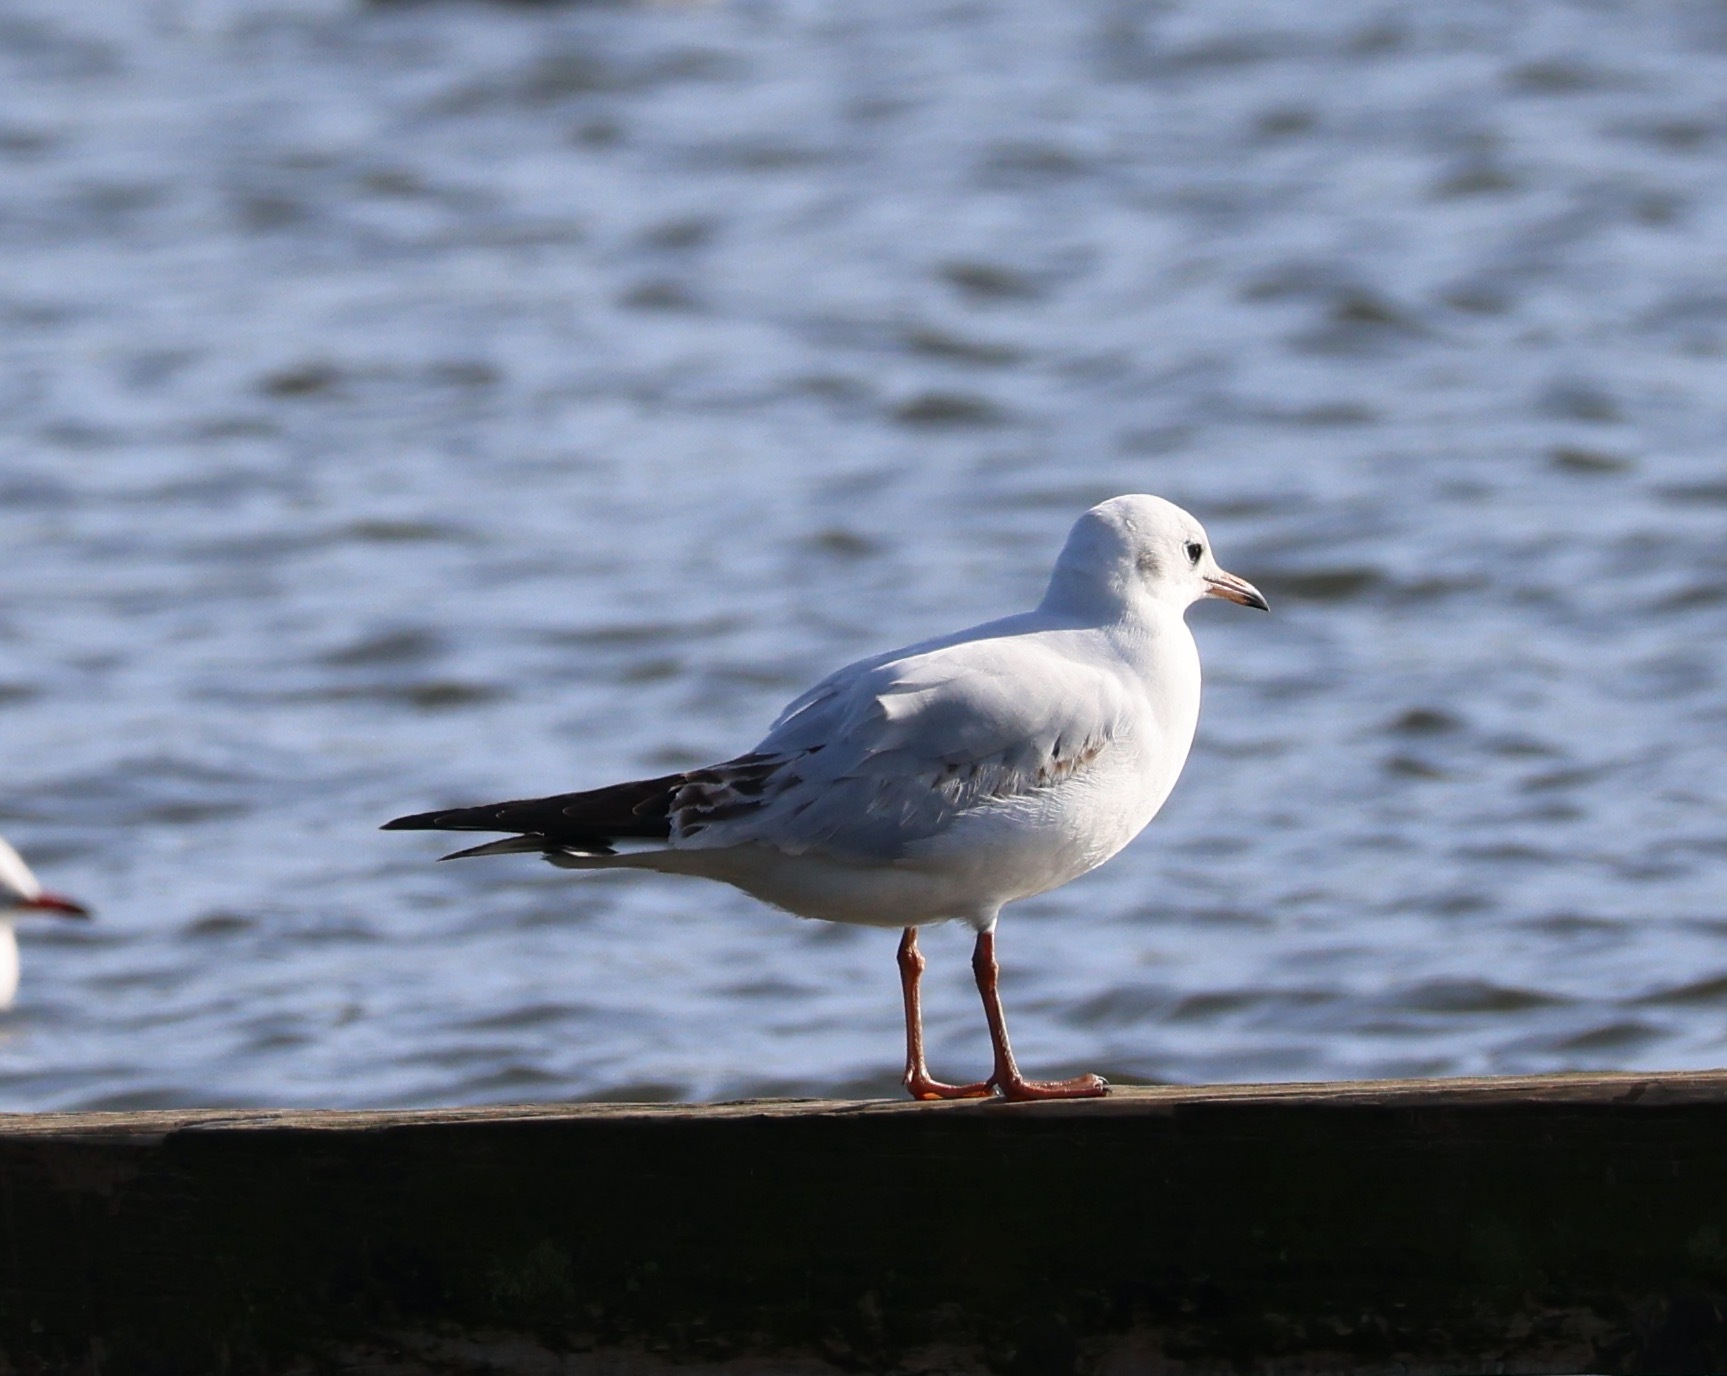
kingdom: Animalia
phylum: Chordata
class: Aves
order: Charadriiformes
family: Laridae
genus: Chroicocephalus
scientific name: Chroicocephalus ridibundus
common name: Black-headed gull
